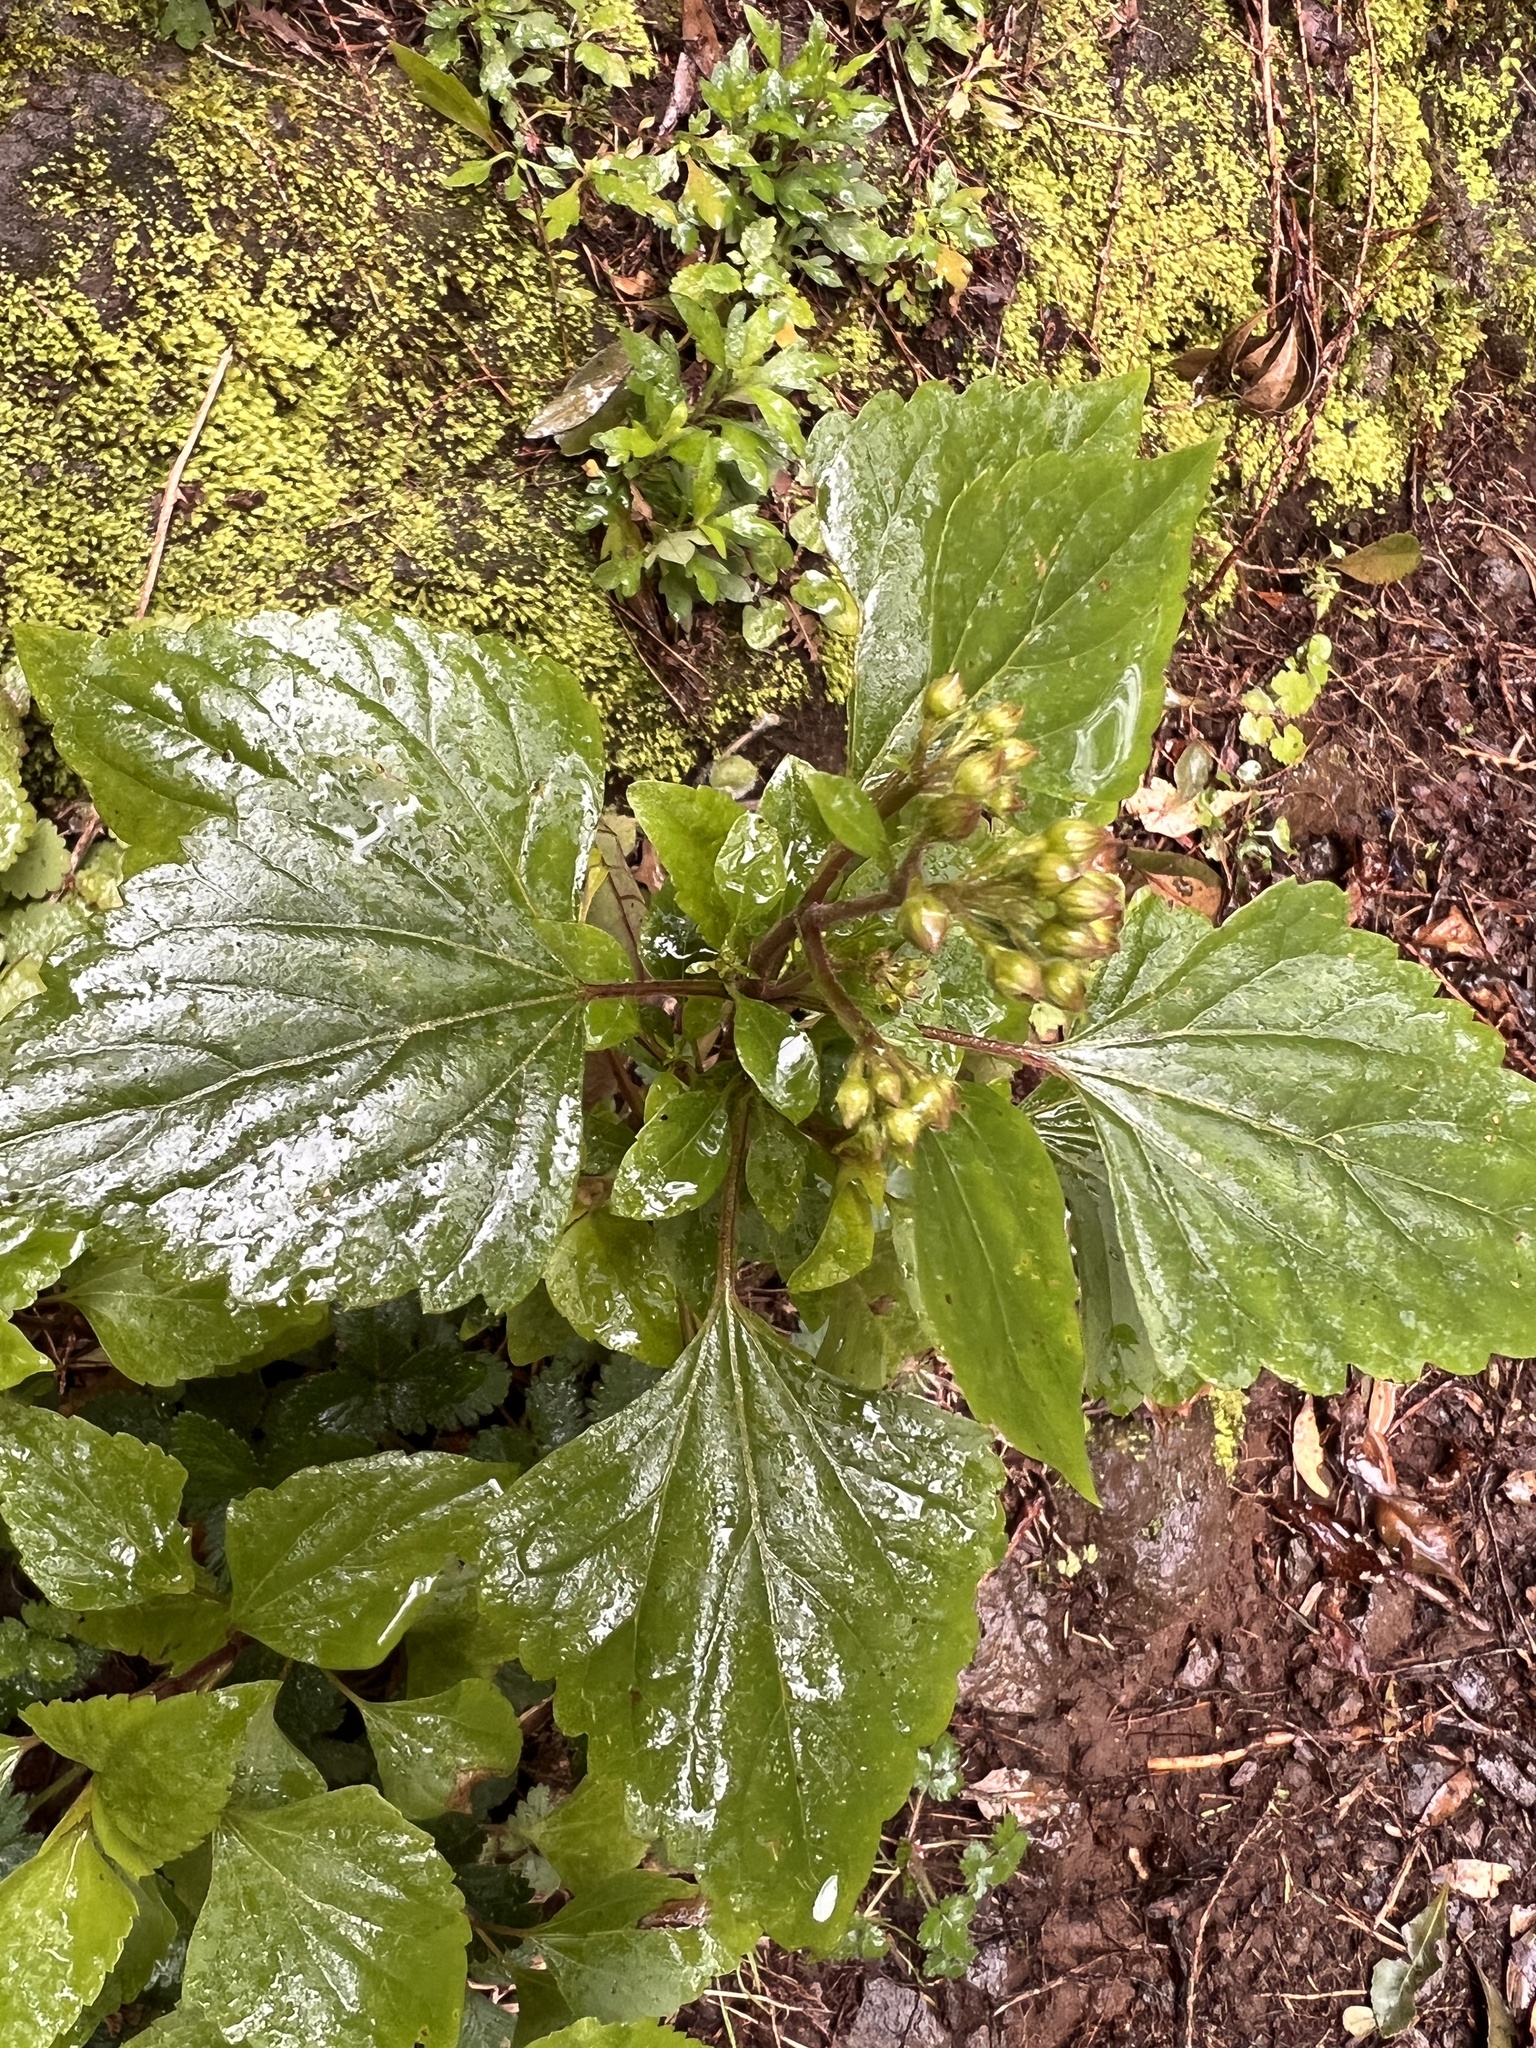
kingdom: Plantae
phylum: Tracheophyta
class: Magnoliopsida
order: Asterales
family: Asteraceae
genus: Ageratina
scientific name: Ageratina adenophora
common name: Sticky snakeroot
